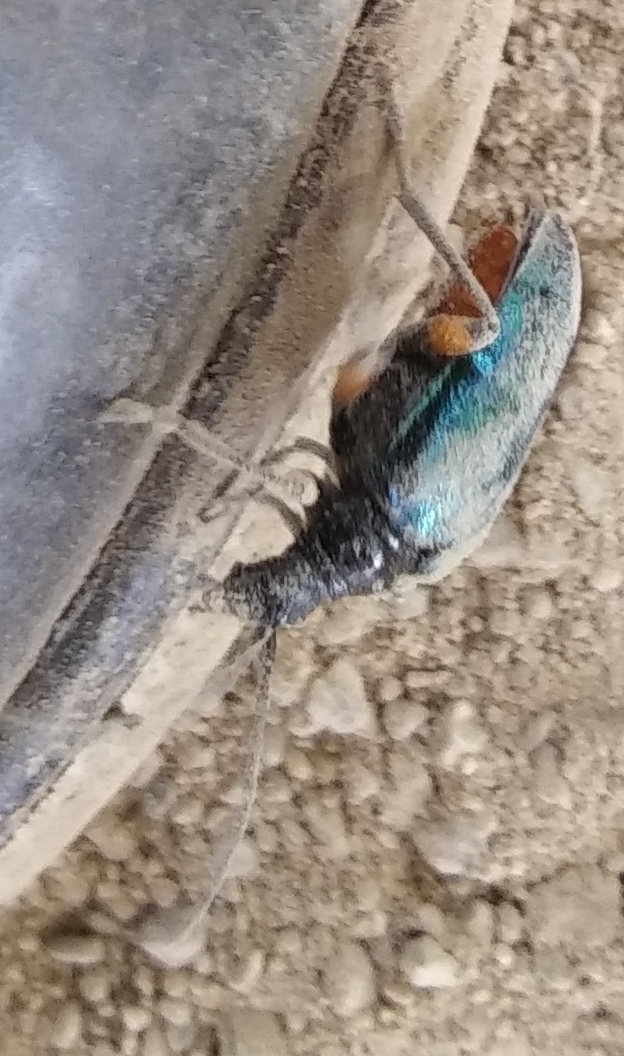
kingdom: Animalia
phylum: Arthropoda
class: Insecta
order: Coleoptera
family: Cerambycidae
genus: Pseudogaurotina
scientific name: Pseudogaurotina cressoni
